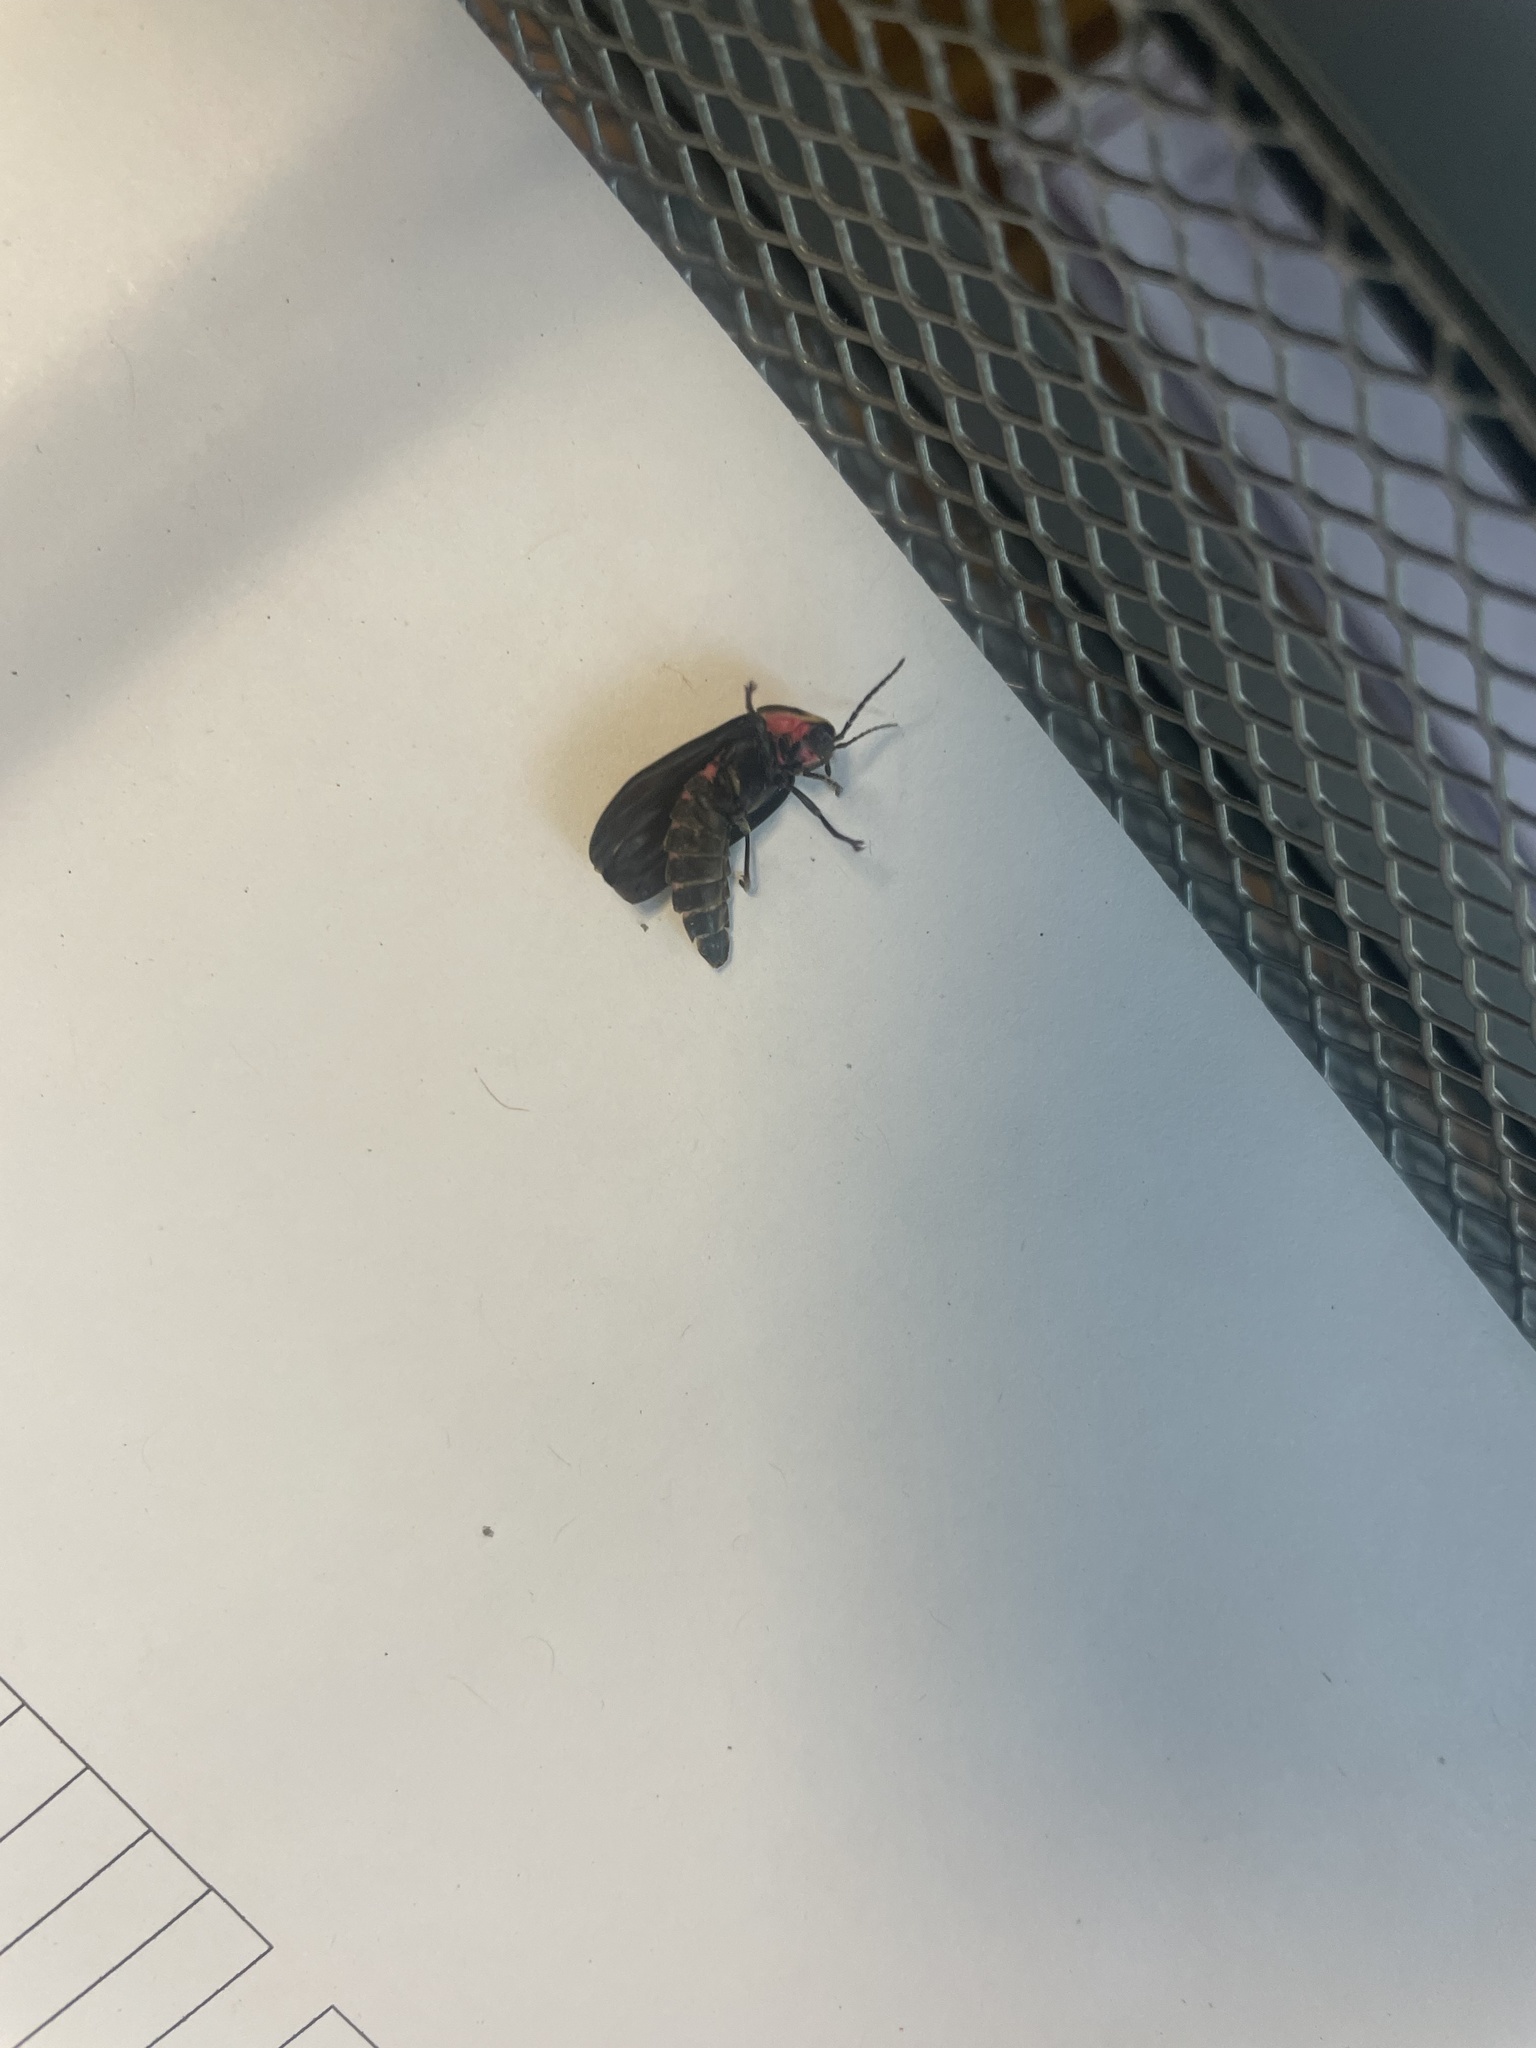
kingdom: Animalia
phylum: Arthropoda
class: Insecta
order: Coleoptera
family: Staphylinidae
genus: Oiceoptoma
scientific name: Oiceoptoma noveboracense
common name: Margined carrion beetle
